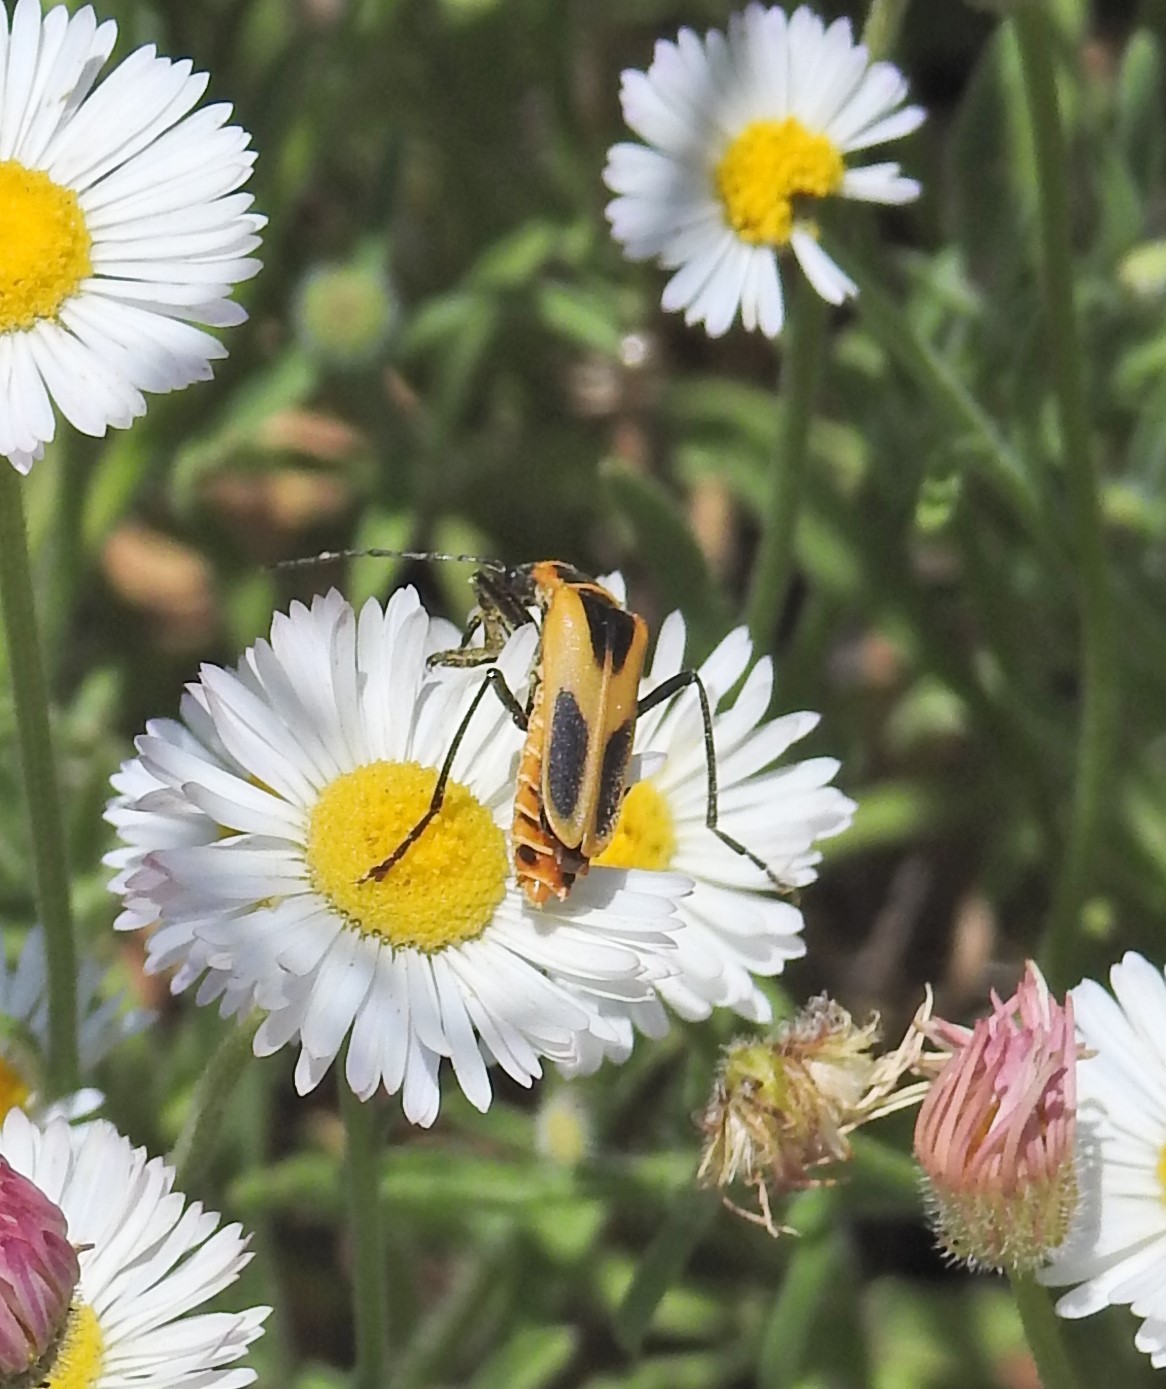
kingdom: Animalia
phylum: Arthropoda
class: Insecta
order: Coleoptera
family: Cantharidae
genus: Chauliognathus
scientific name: Chauliognathus scutellaris
